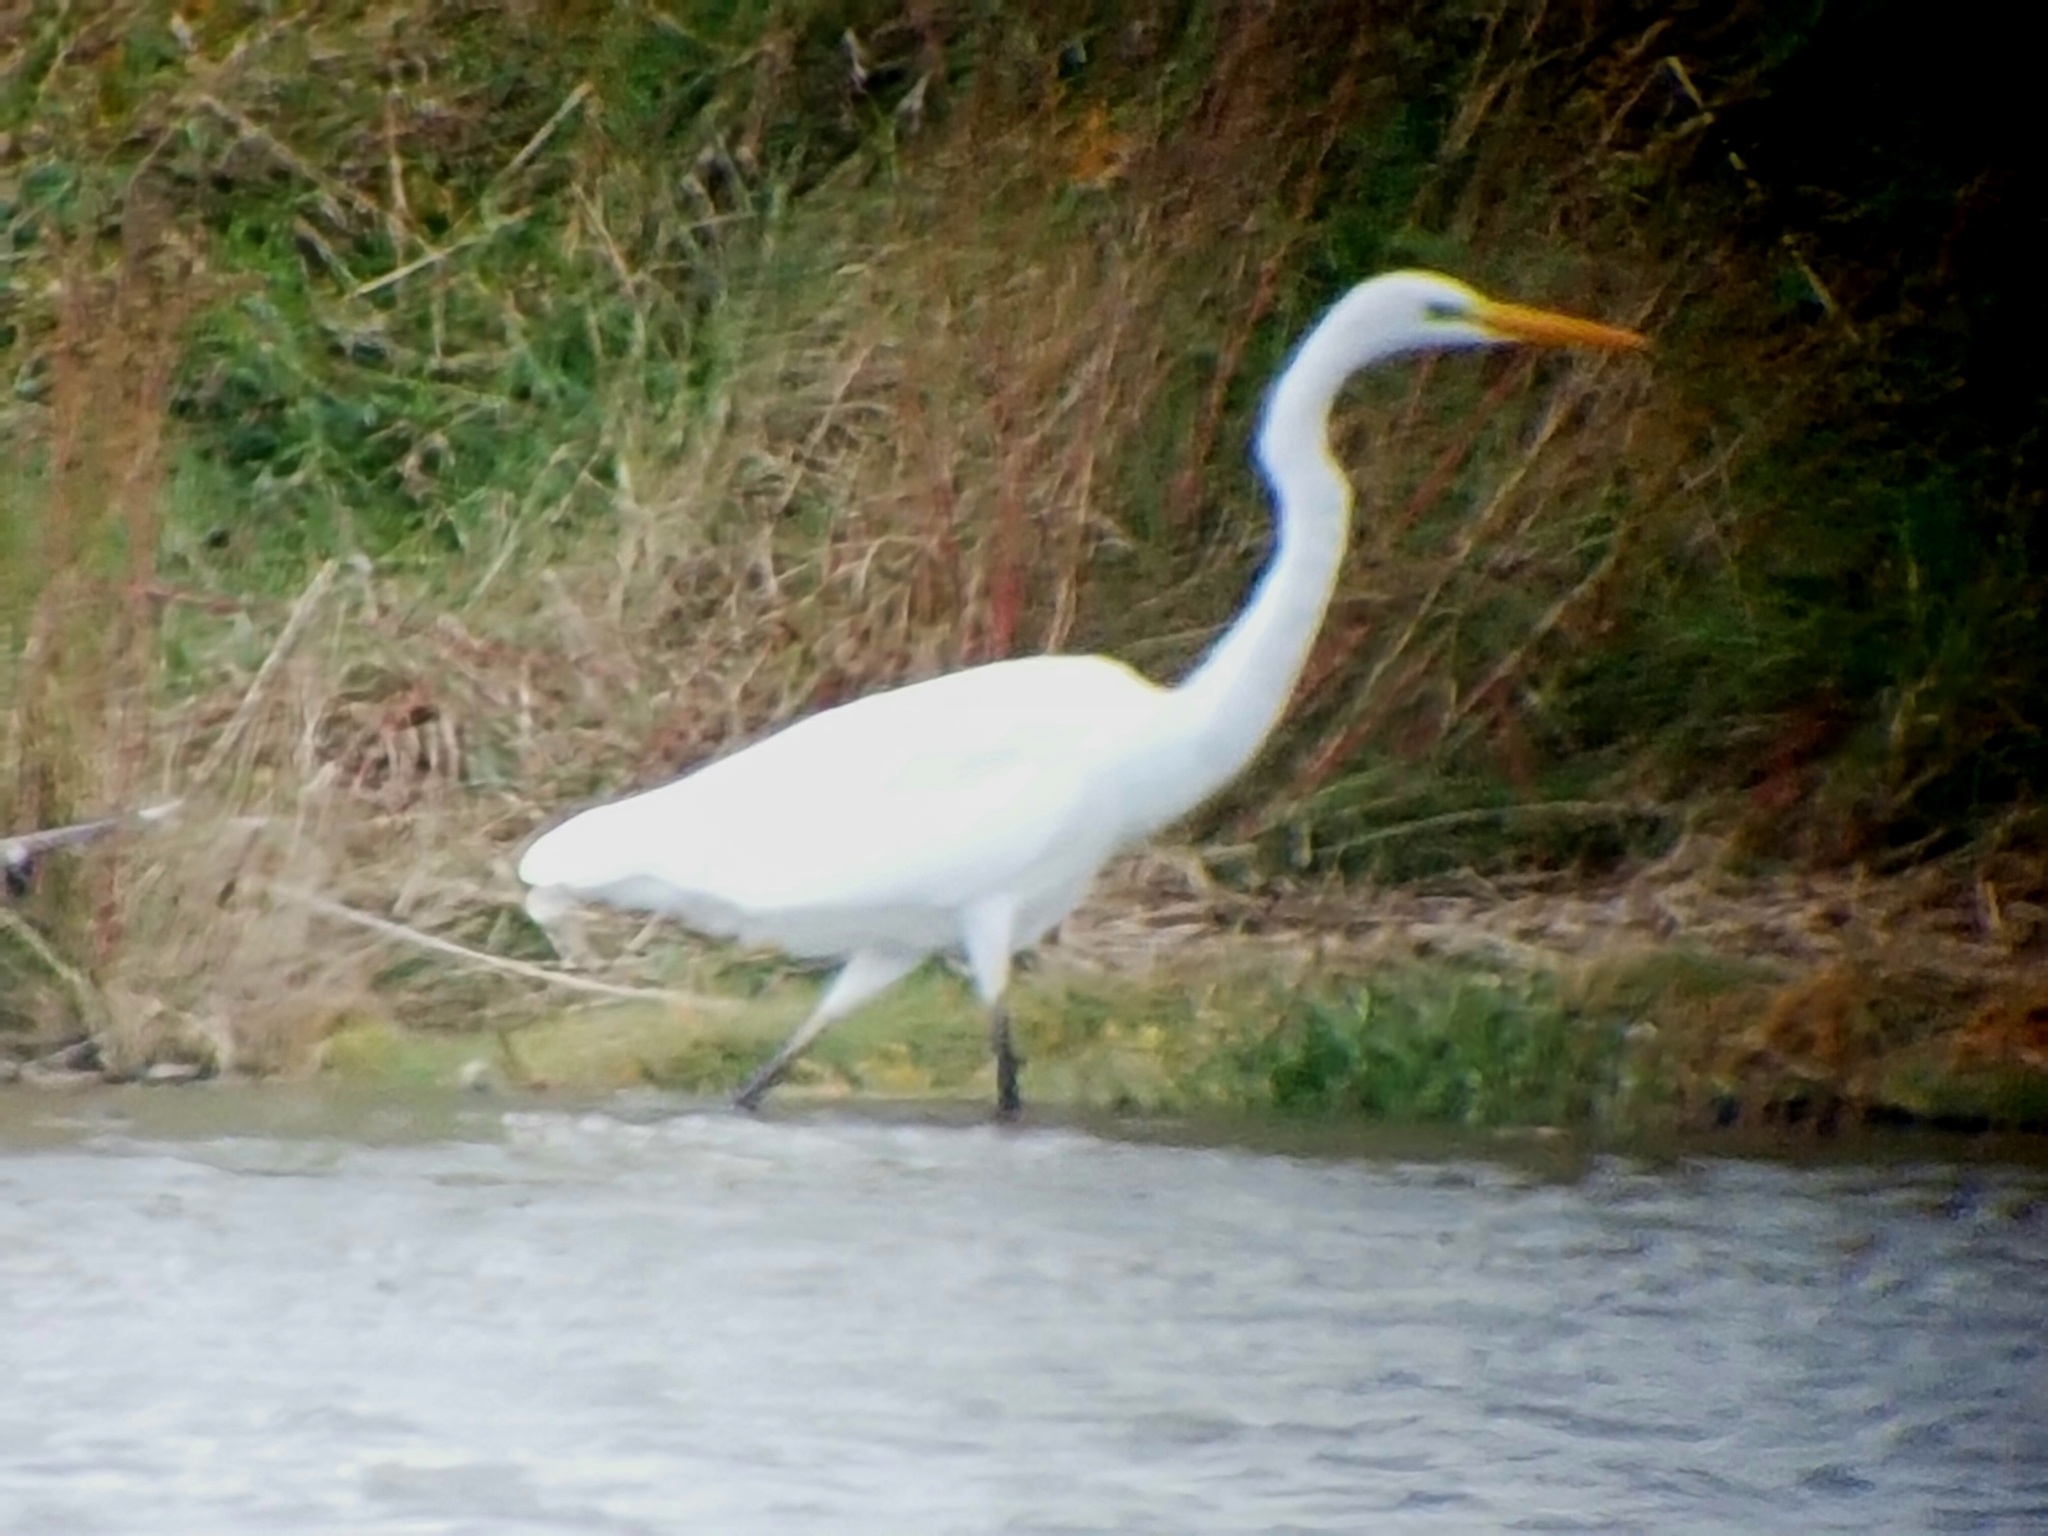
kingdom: Animalia
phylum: Chordata
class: Aves
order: Pelecaniformes
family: Ardeidae
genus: Ardea
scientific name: Ardea alba
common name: Great egret
